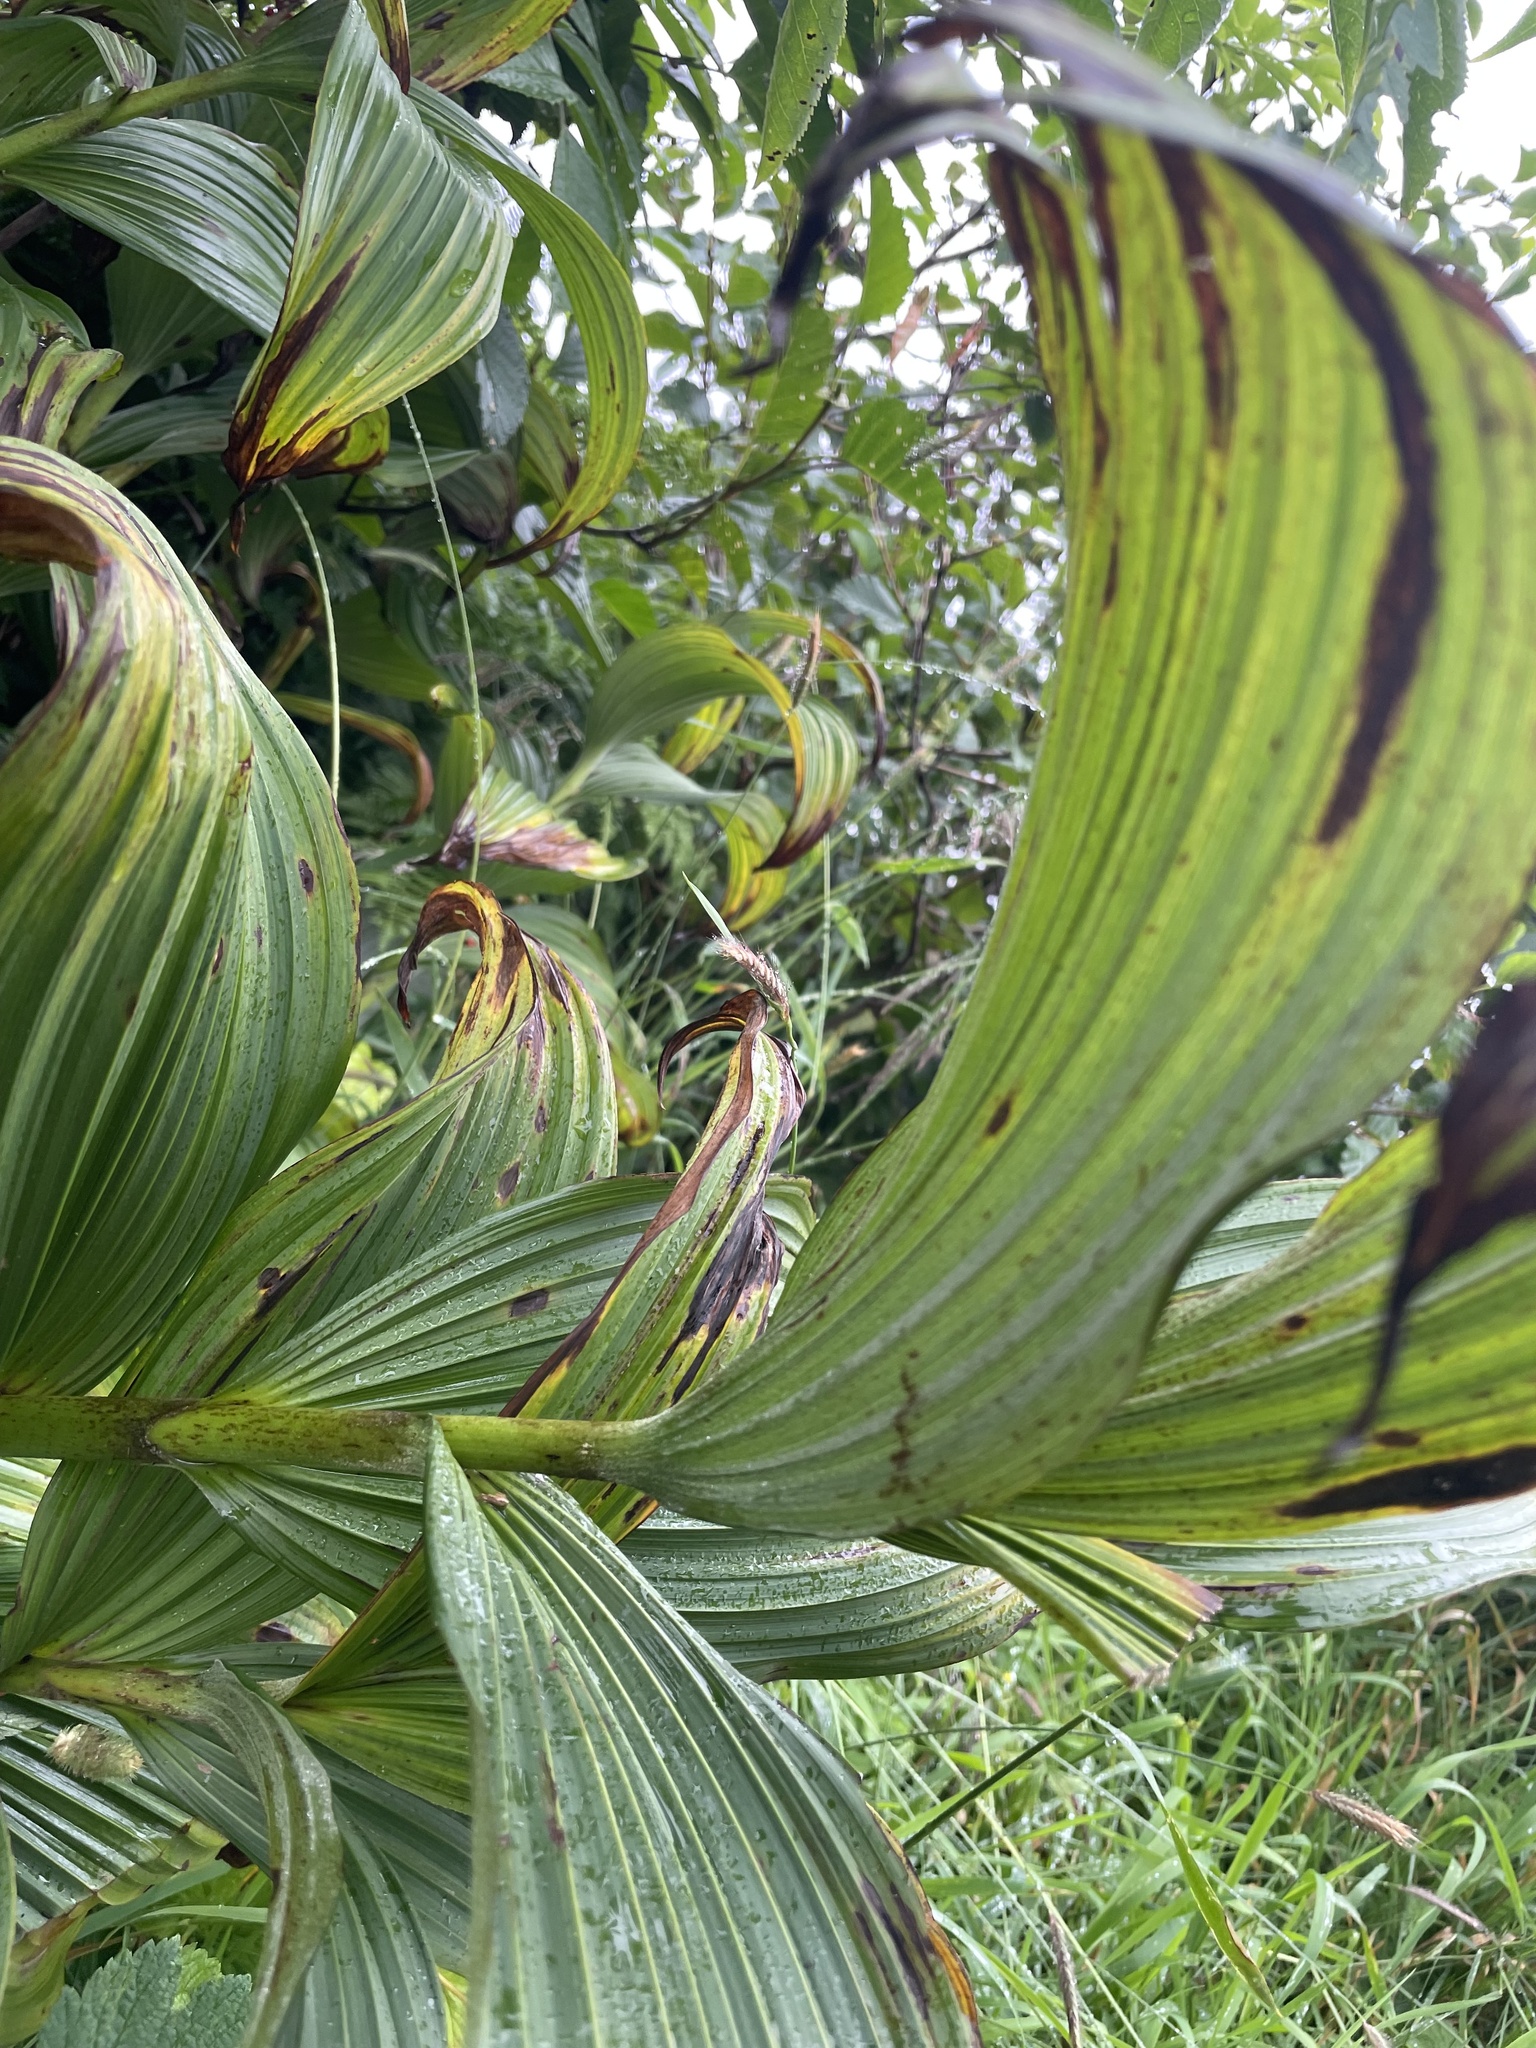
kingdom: Plantae
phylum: Tracheophyta
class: Liliopsida
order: Liliales
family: Melanthiaceae
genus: Veratrum
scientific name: Veratrum viride
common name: American false hellebore
